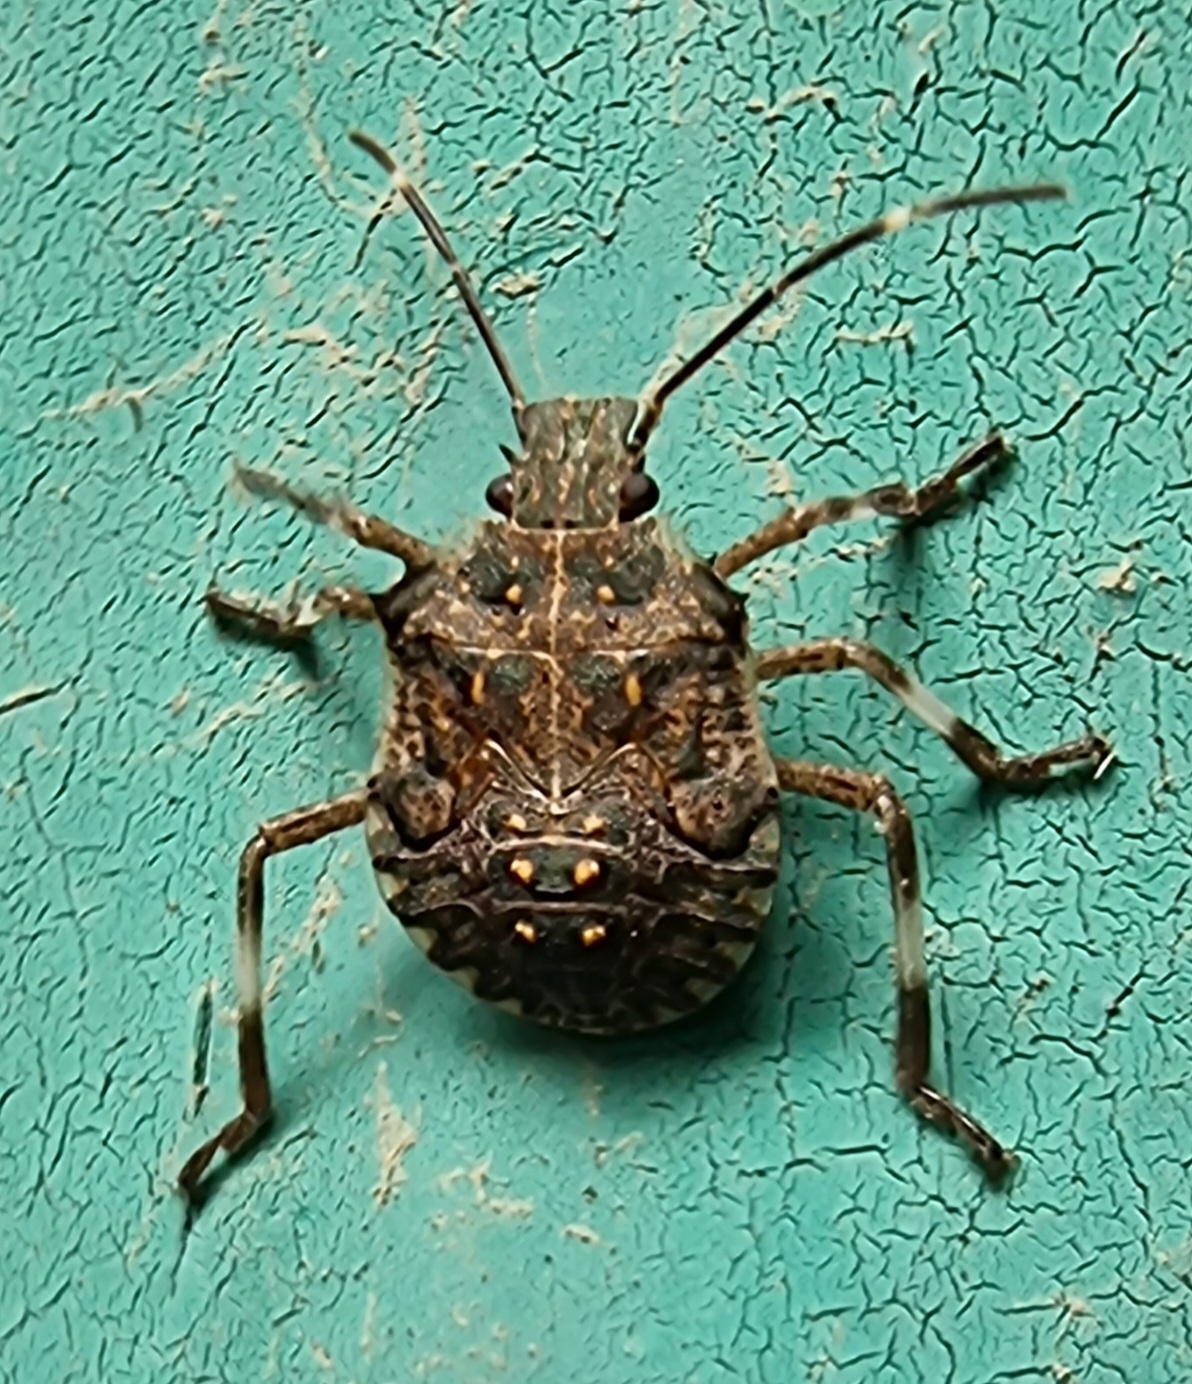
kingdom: Animalia
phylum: Arthropoda
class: Insecta
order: Hemiptera
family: Pentatomidae
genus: Halyomorpha
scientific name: Halyomorpha halys
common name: Brown marmorated stink bug
